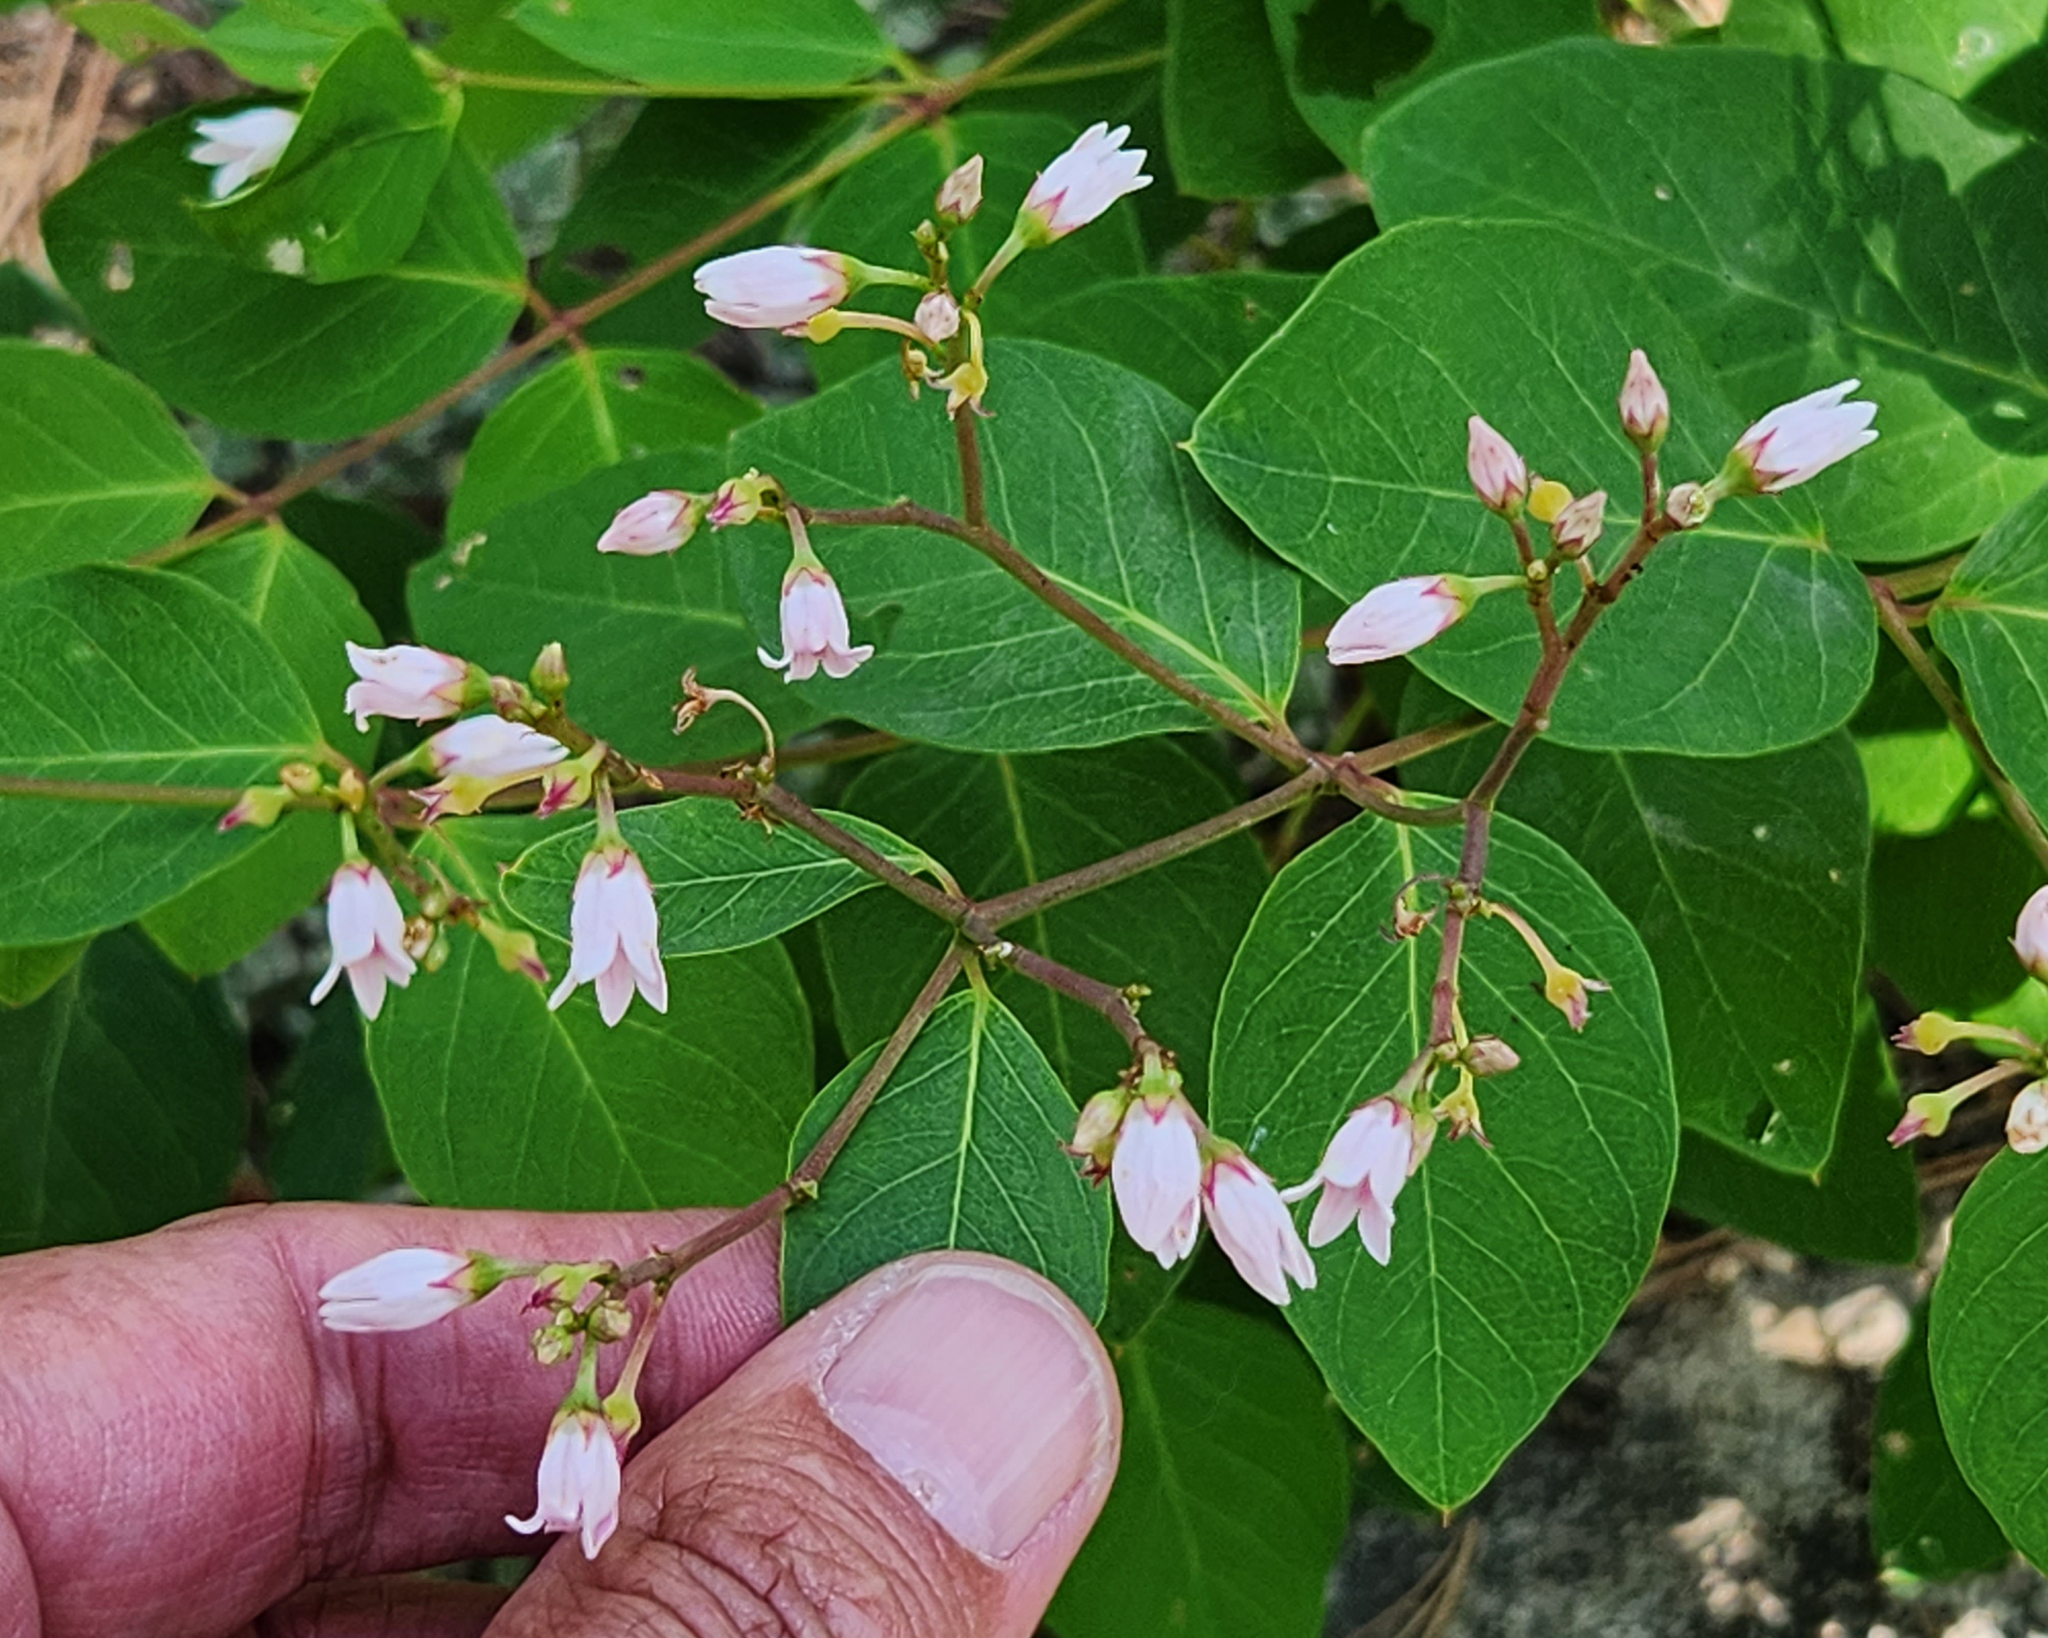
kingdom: Plantae
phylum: Tracheophyta
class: Magnoliopsida
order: Gentianales
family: Apocynaceae
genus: Apocynum
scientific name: Apocynum androsaemifolium
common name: Spreading dogbane
